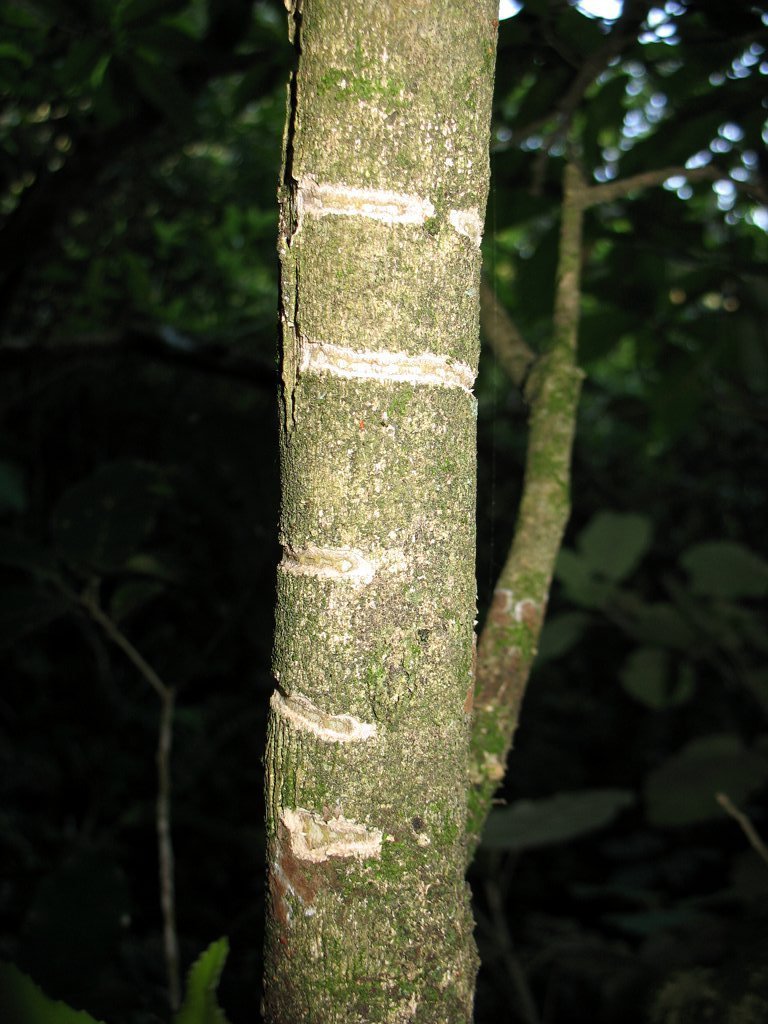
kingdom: Animalia
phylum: Chordata
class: Aves
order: Psittaciformes
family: Psittacidae
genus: Nestor
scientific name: Nestor meridionalis
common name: New zealand kaka
